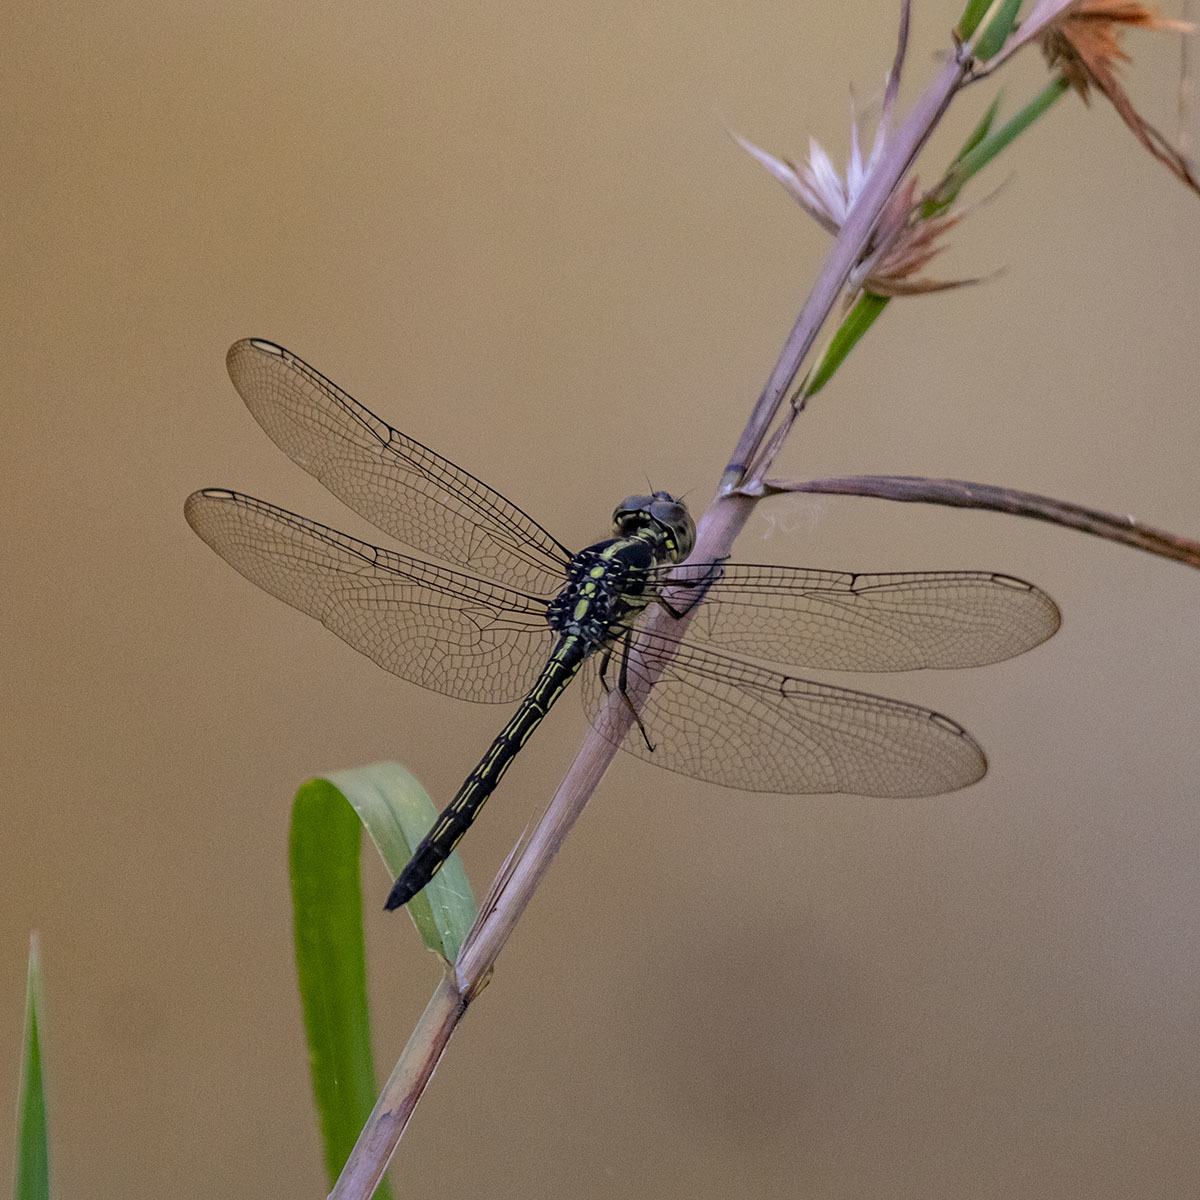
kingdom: Animalia
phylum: Arthropoda
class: Insecta
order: Odonata
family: Libellulidae
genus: Cratilla
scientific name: Cratilla lineata
